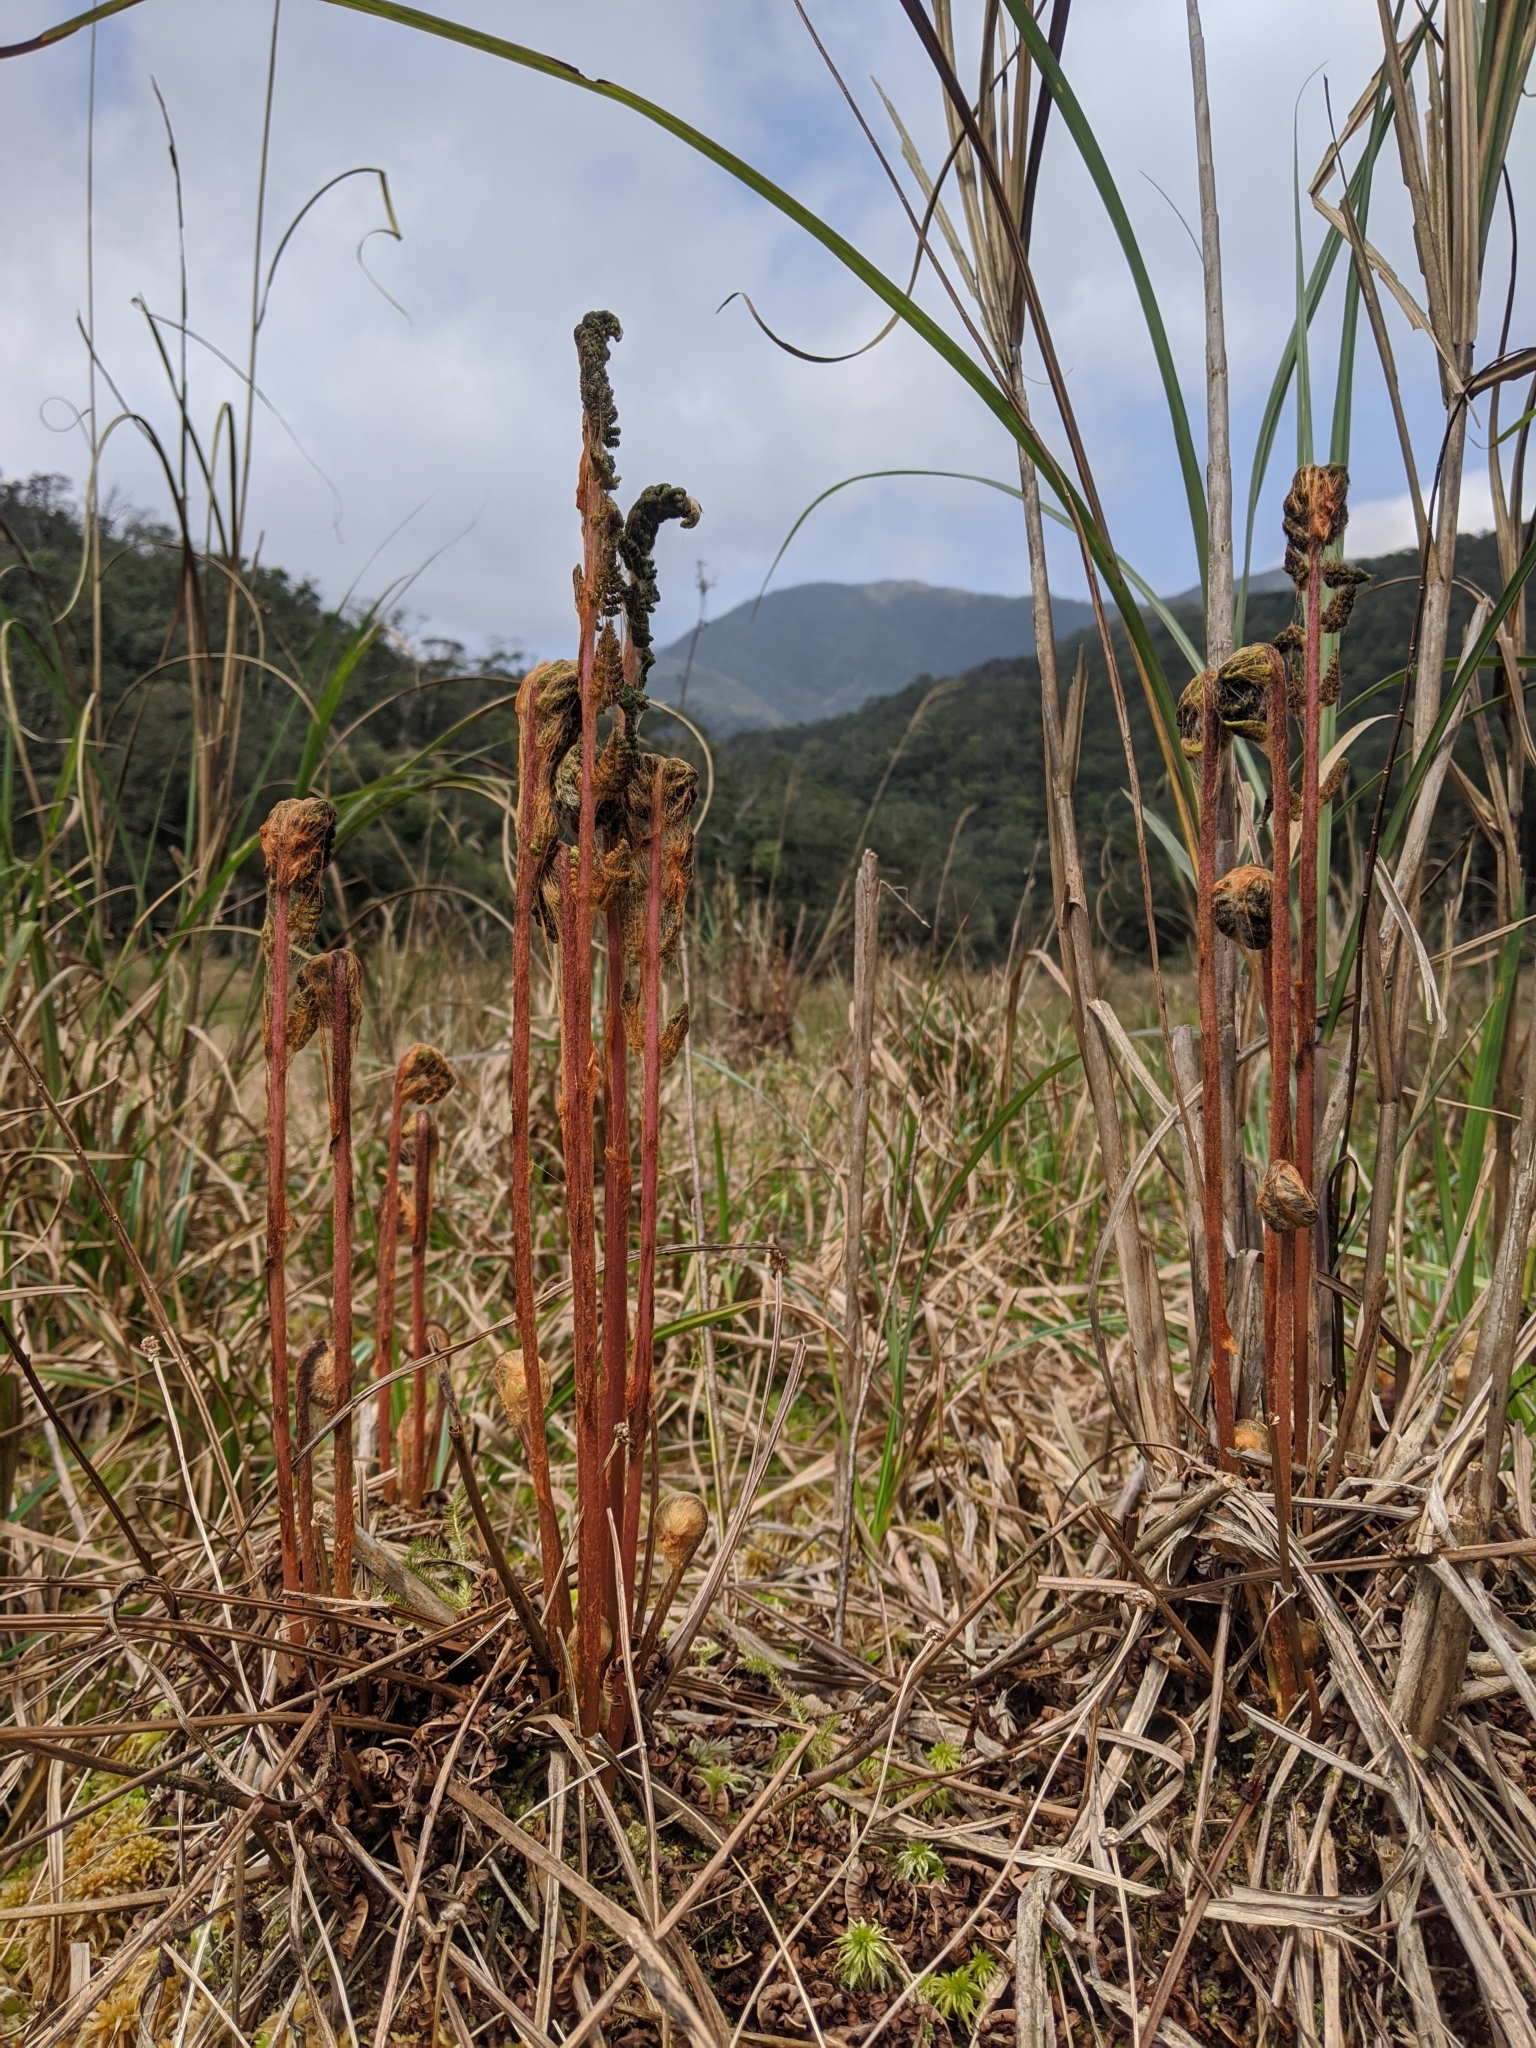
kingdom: Plantae
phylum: Tracheophyta
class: Polypodiopsida
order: Osmundales
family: Osmundaceae
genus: Osmundastrum
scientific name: Osmundastrum cinnamomeum
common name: Cinnamon fern
